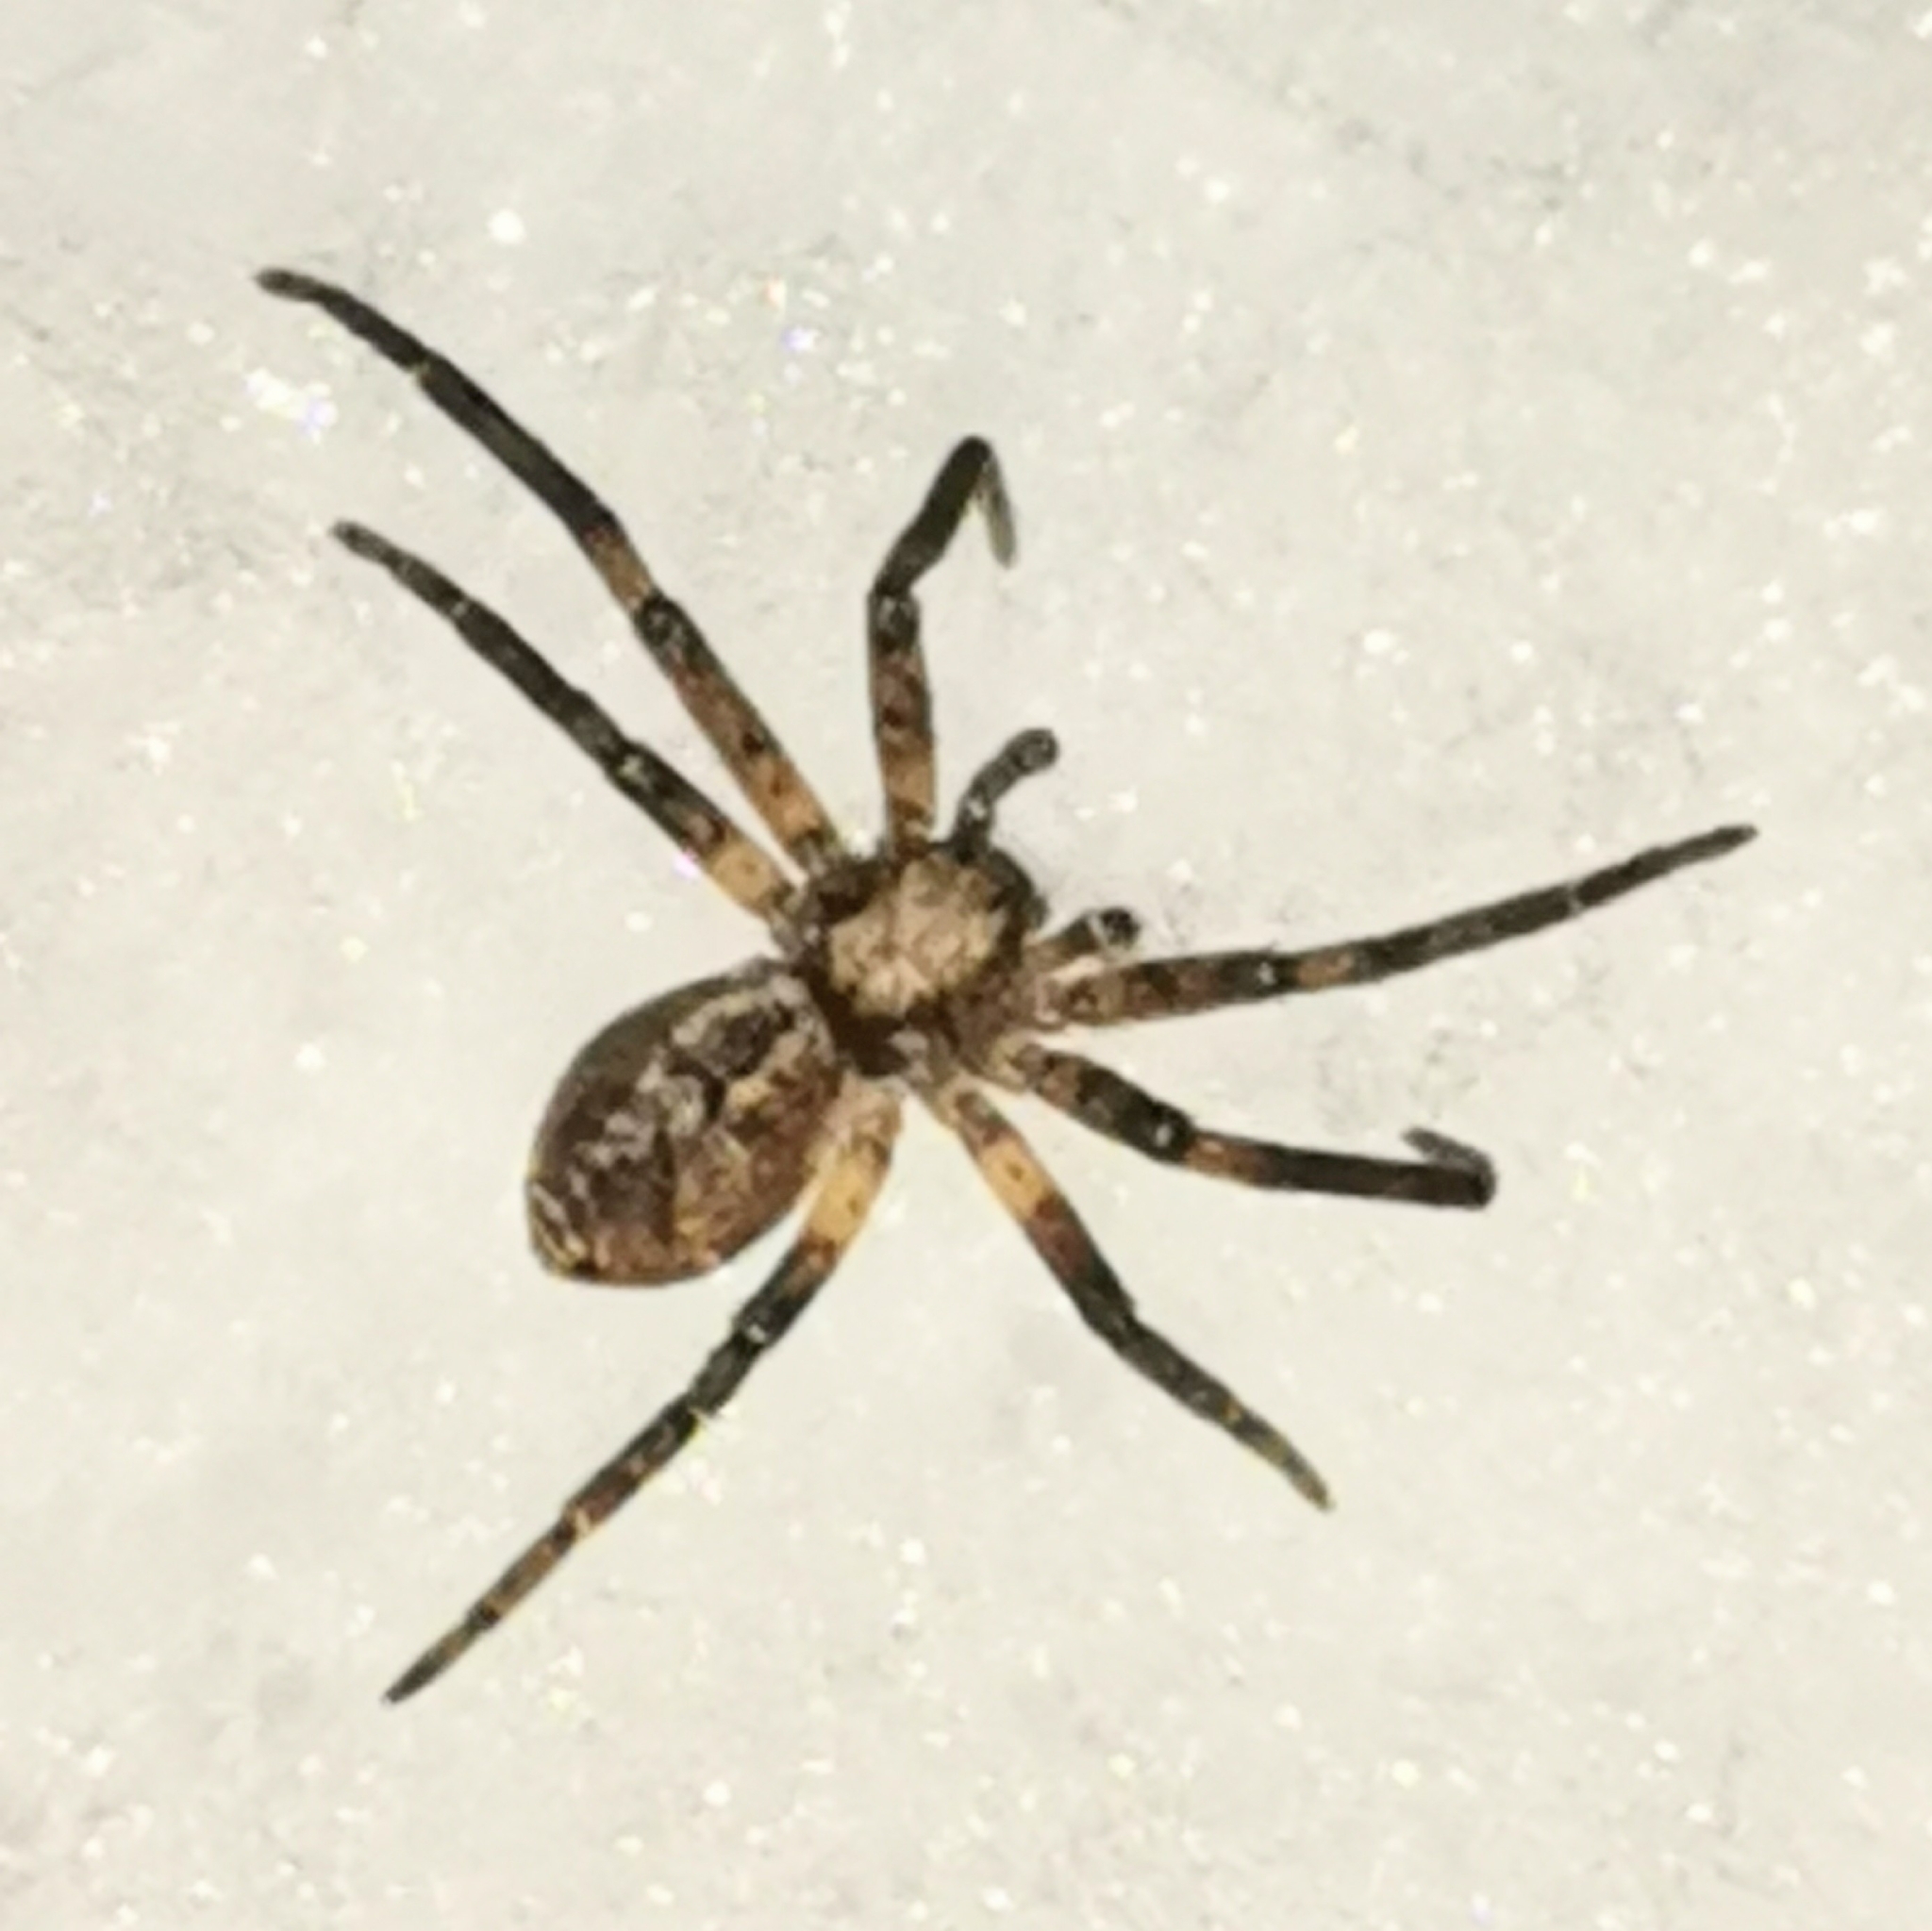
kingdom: Animalia
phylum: Arthropoda
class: Arachnida
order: Araneae
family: Philodromidae
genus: Philodromus
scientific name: Philodromus
